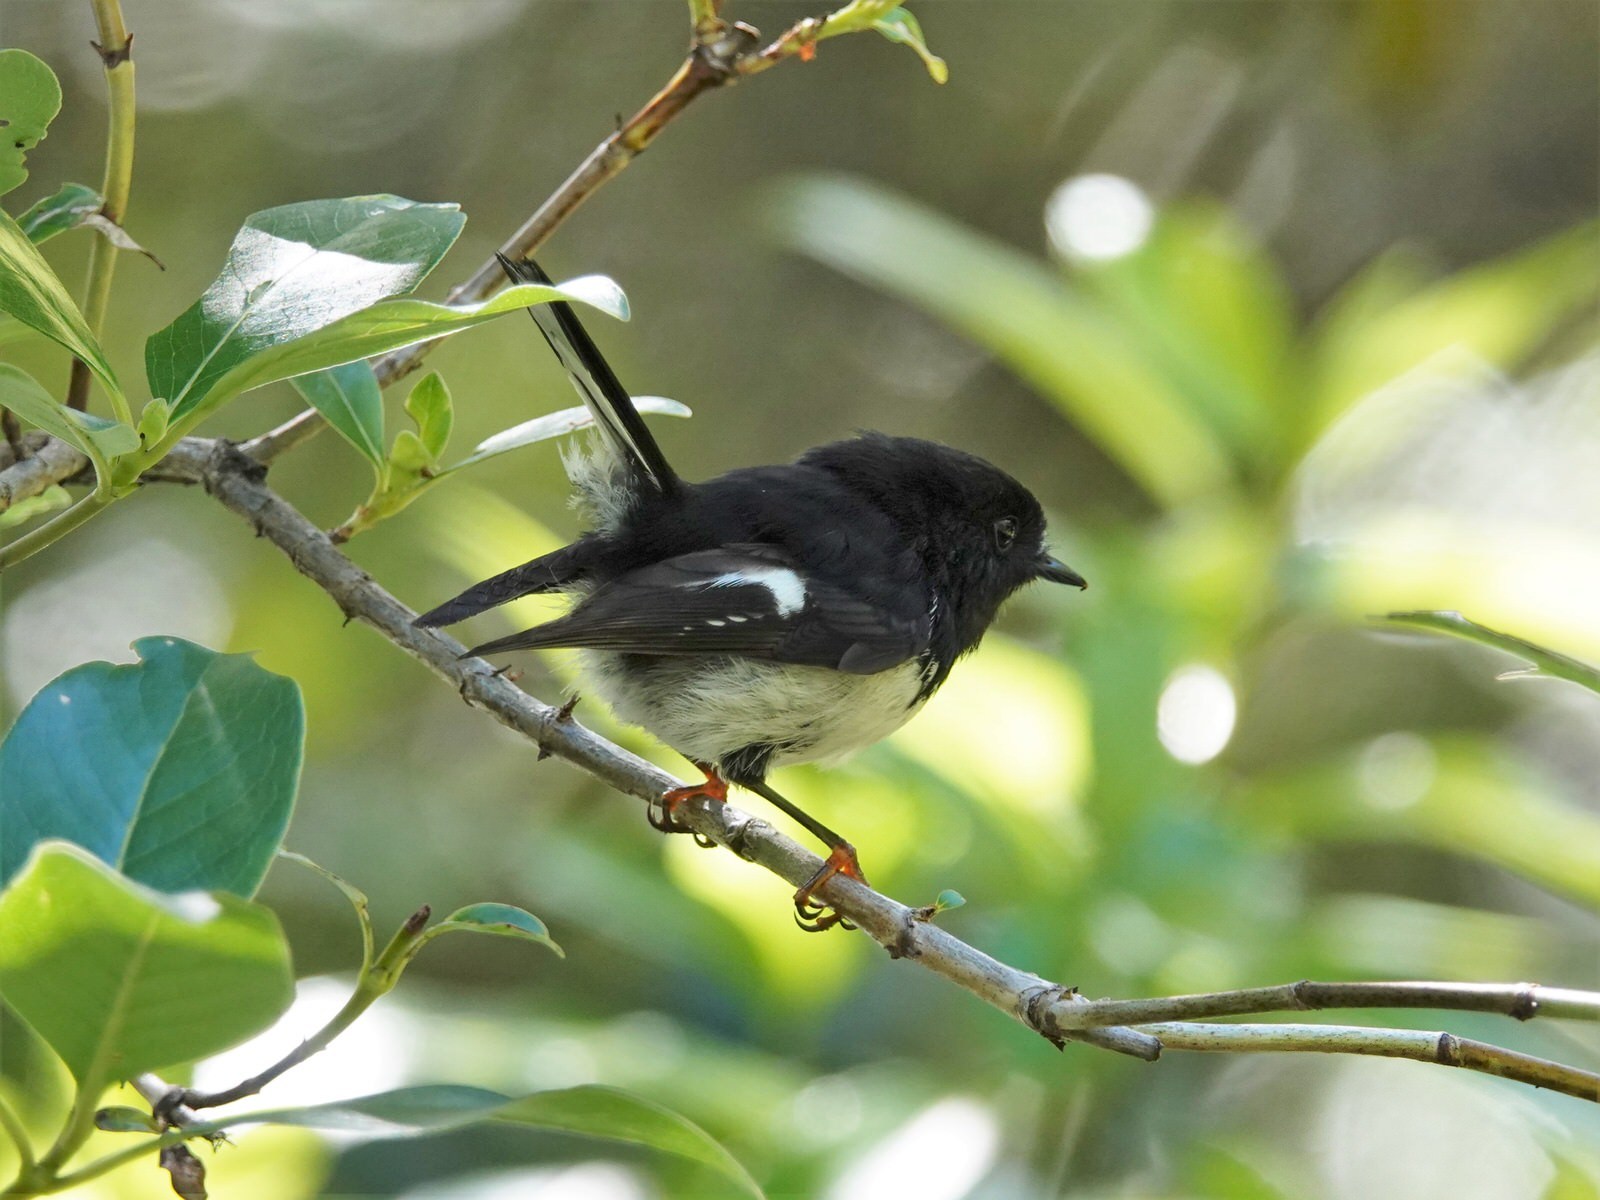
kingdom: Animalia
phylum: Chordata
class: Aves
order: Passeriformes
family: Petroicidae
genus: Petroica
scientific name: Petroica macrocephala
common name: Tomtit
